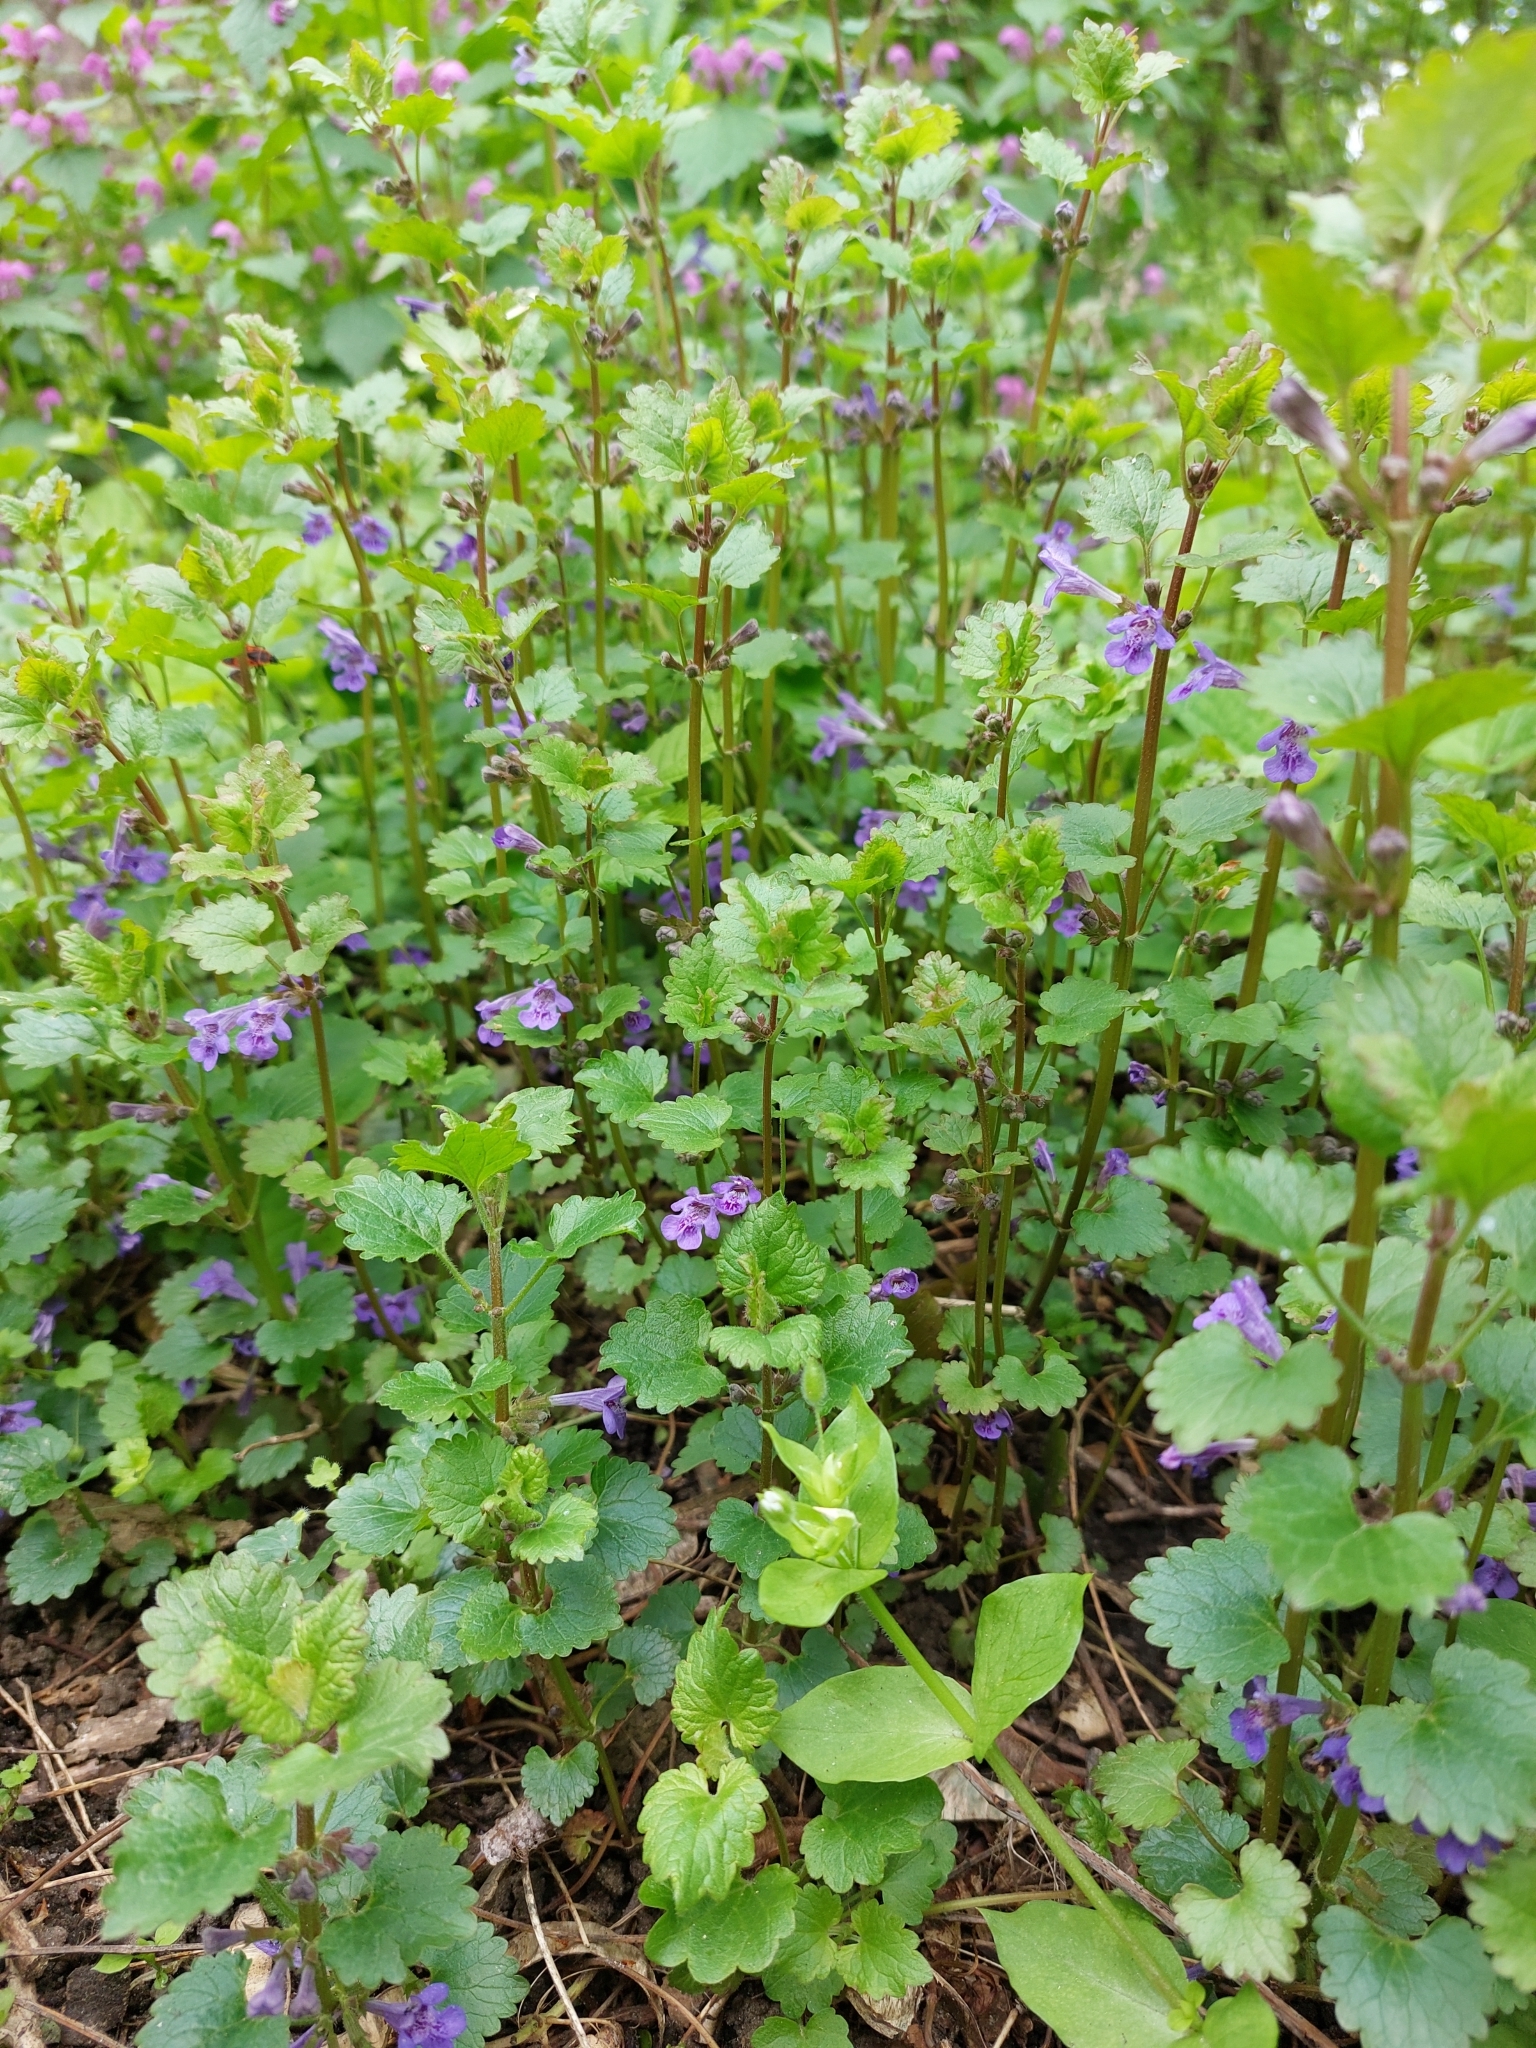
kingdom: Plantae
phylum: Tracheophyta
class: Magnoliopsida
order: Lamiales
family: Lamiaceae
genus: Glechoma
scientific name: Glechoma hederacea
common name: Ground ivy
